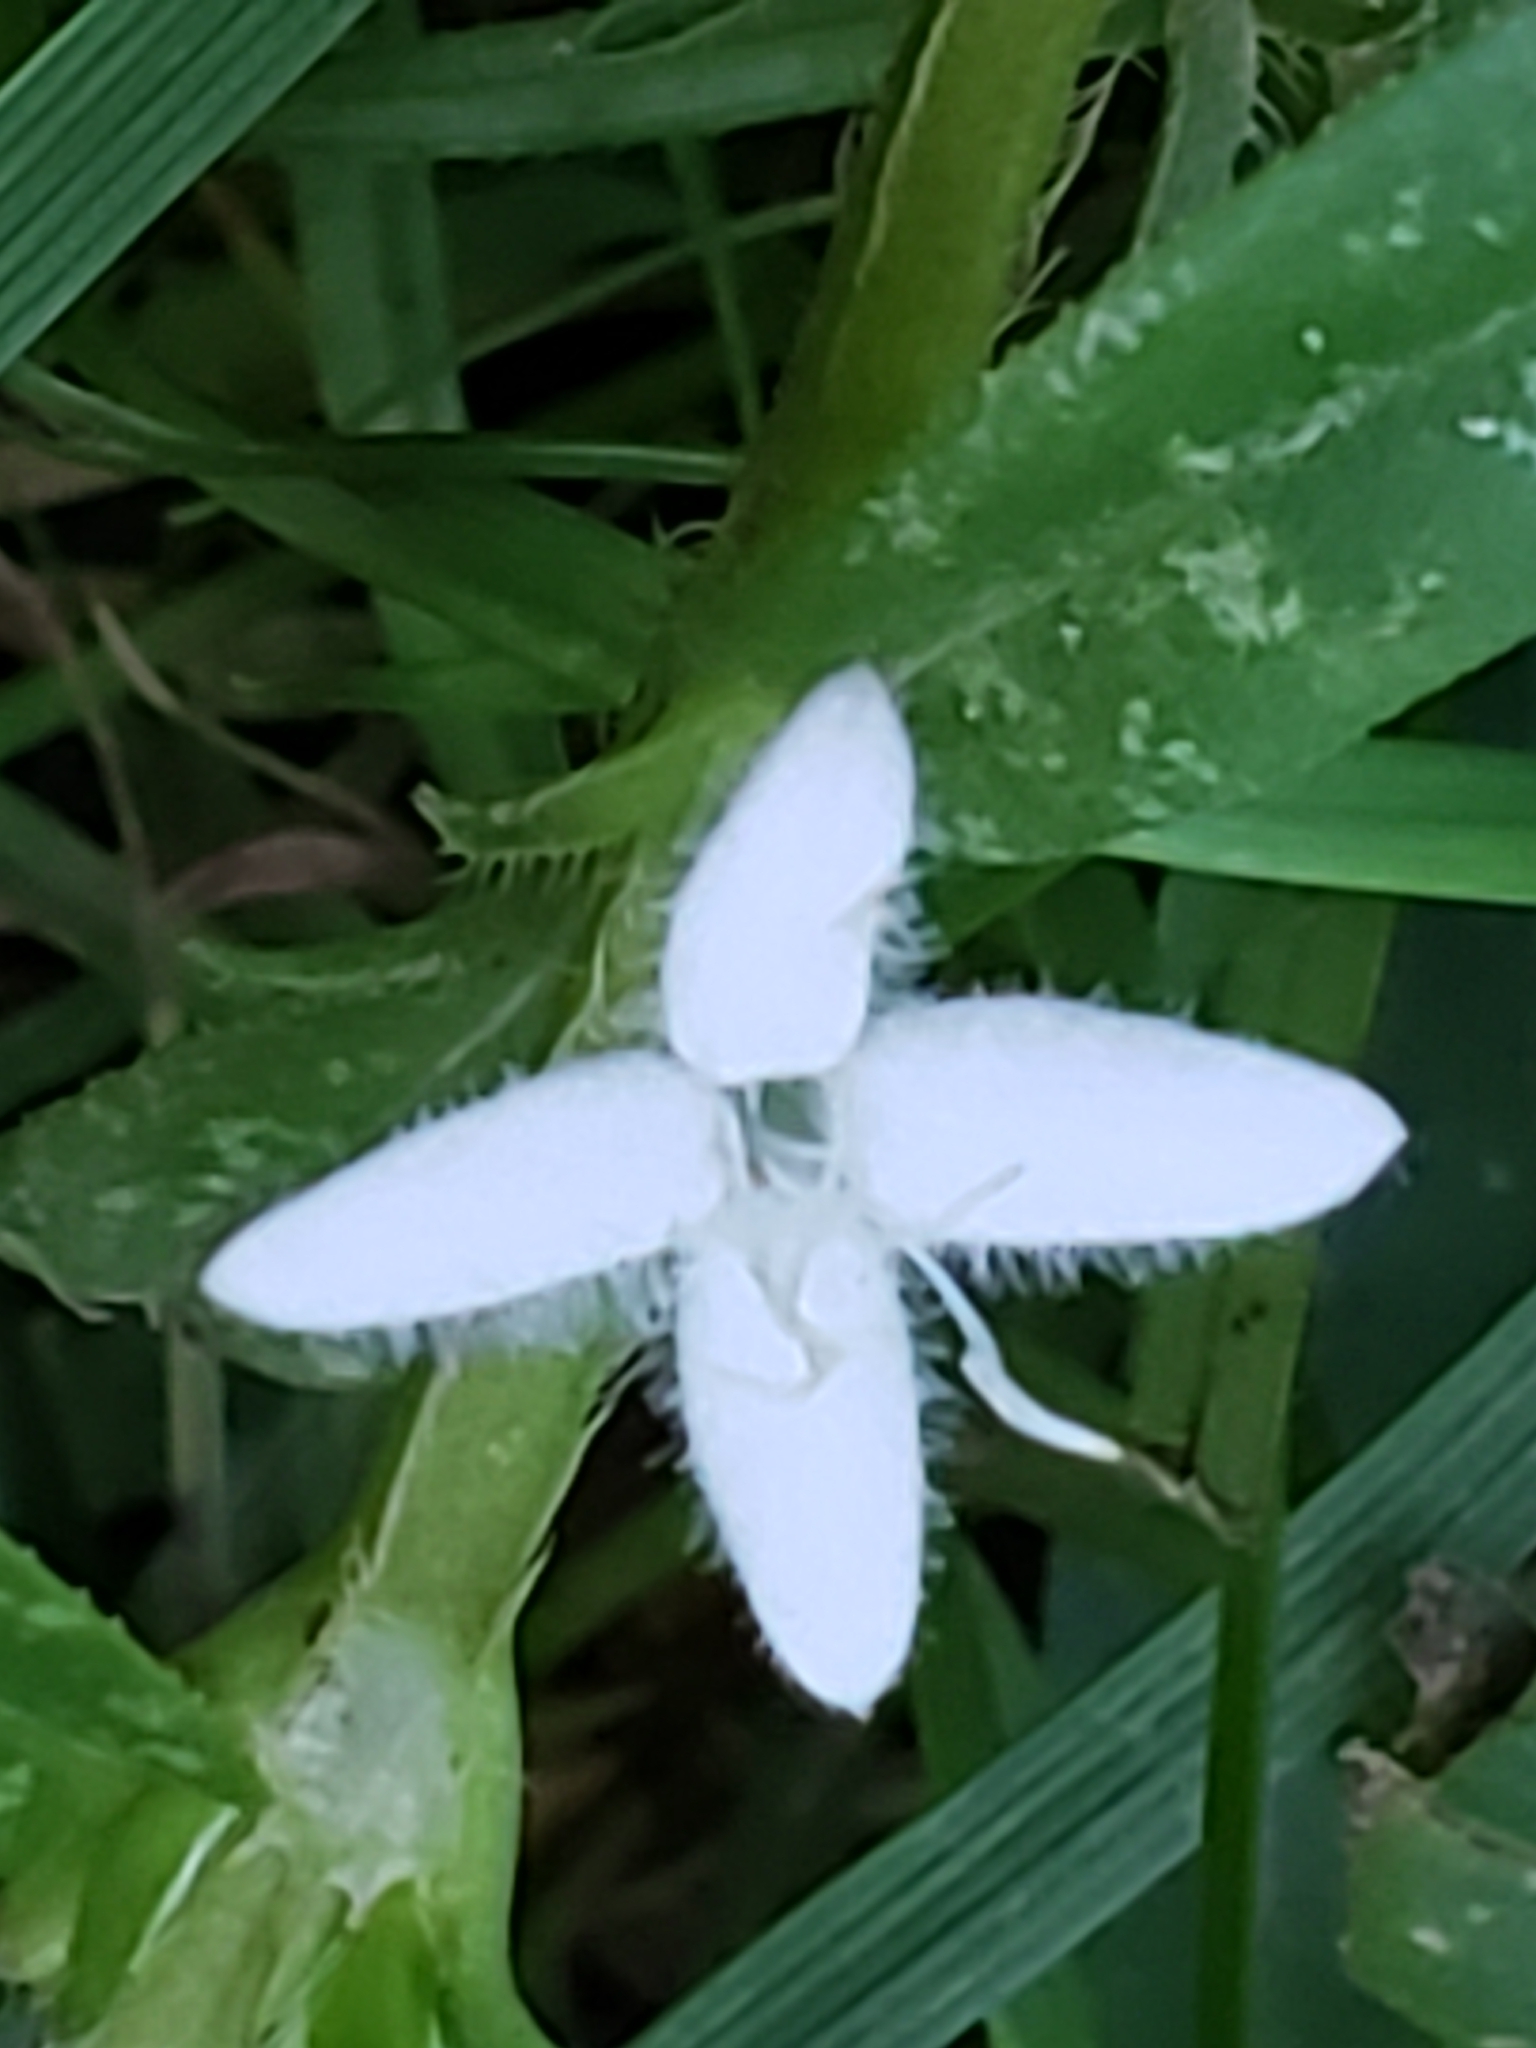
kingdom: Plantae
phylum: Tracheophyta
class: Magnoliopsida
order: Gentianales
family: Rubiaceae
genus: Diodia
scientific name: Diodia virginiana
